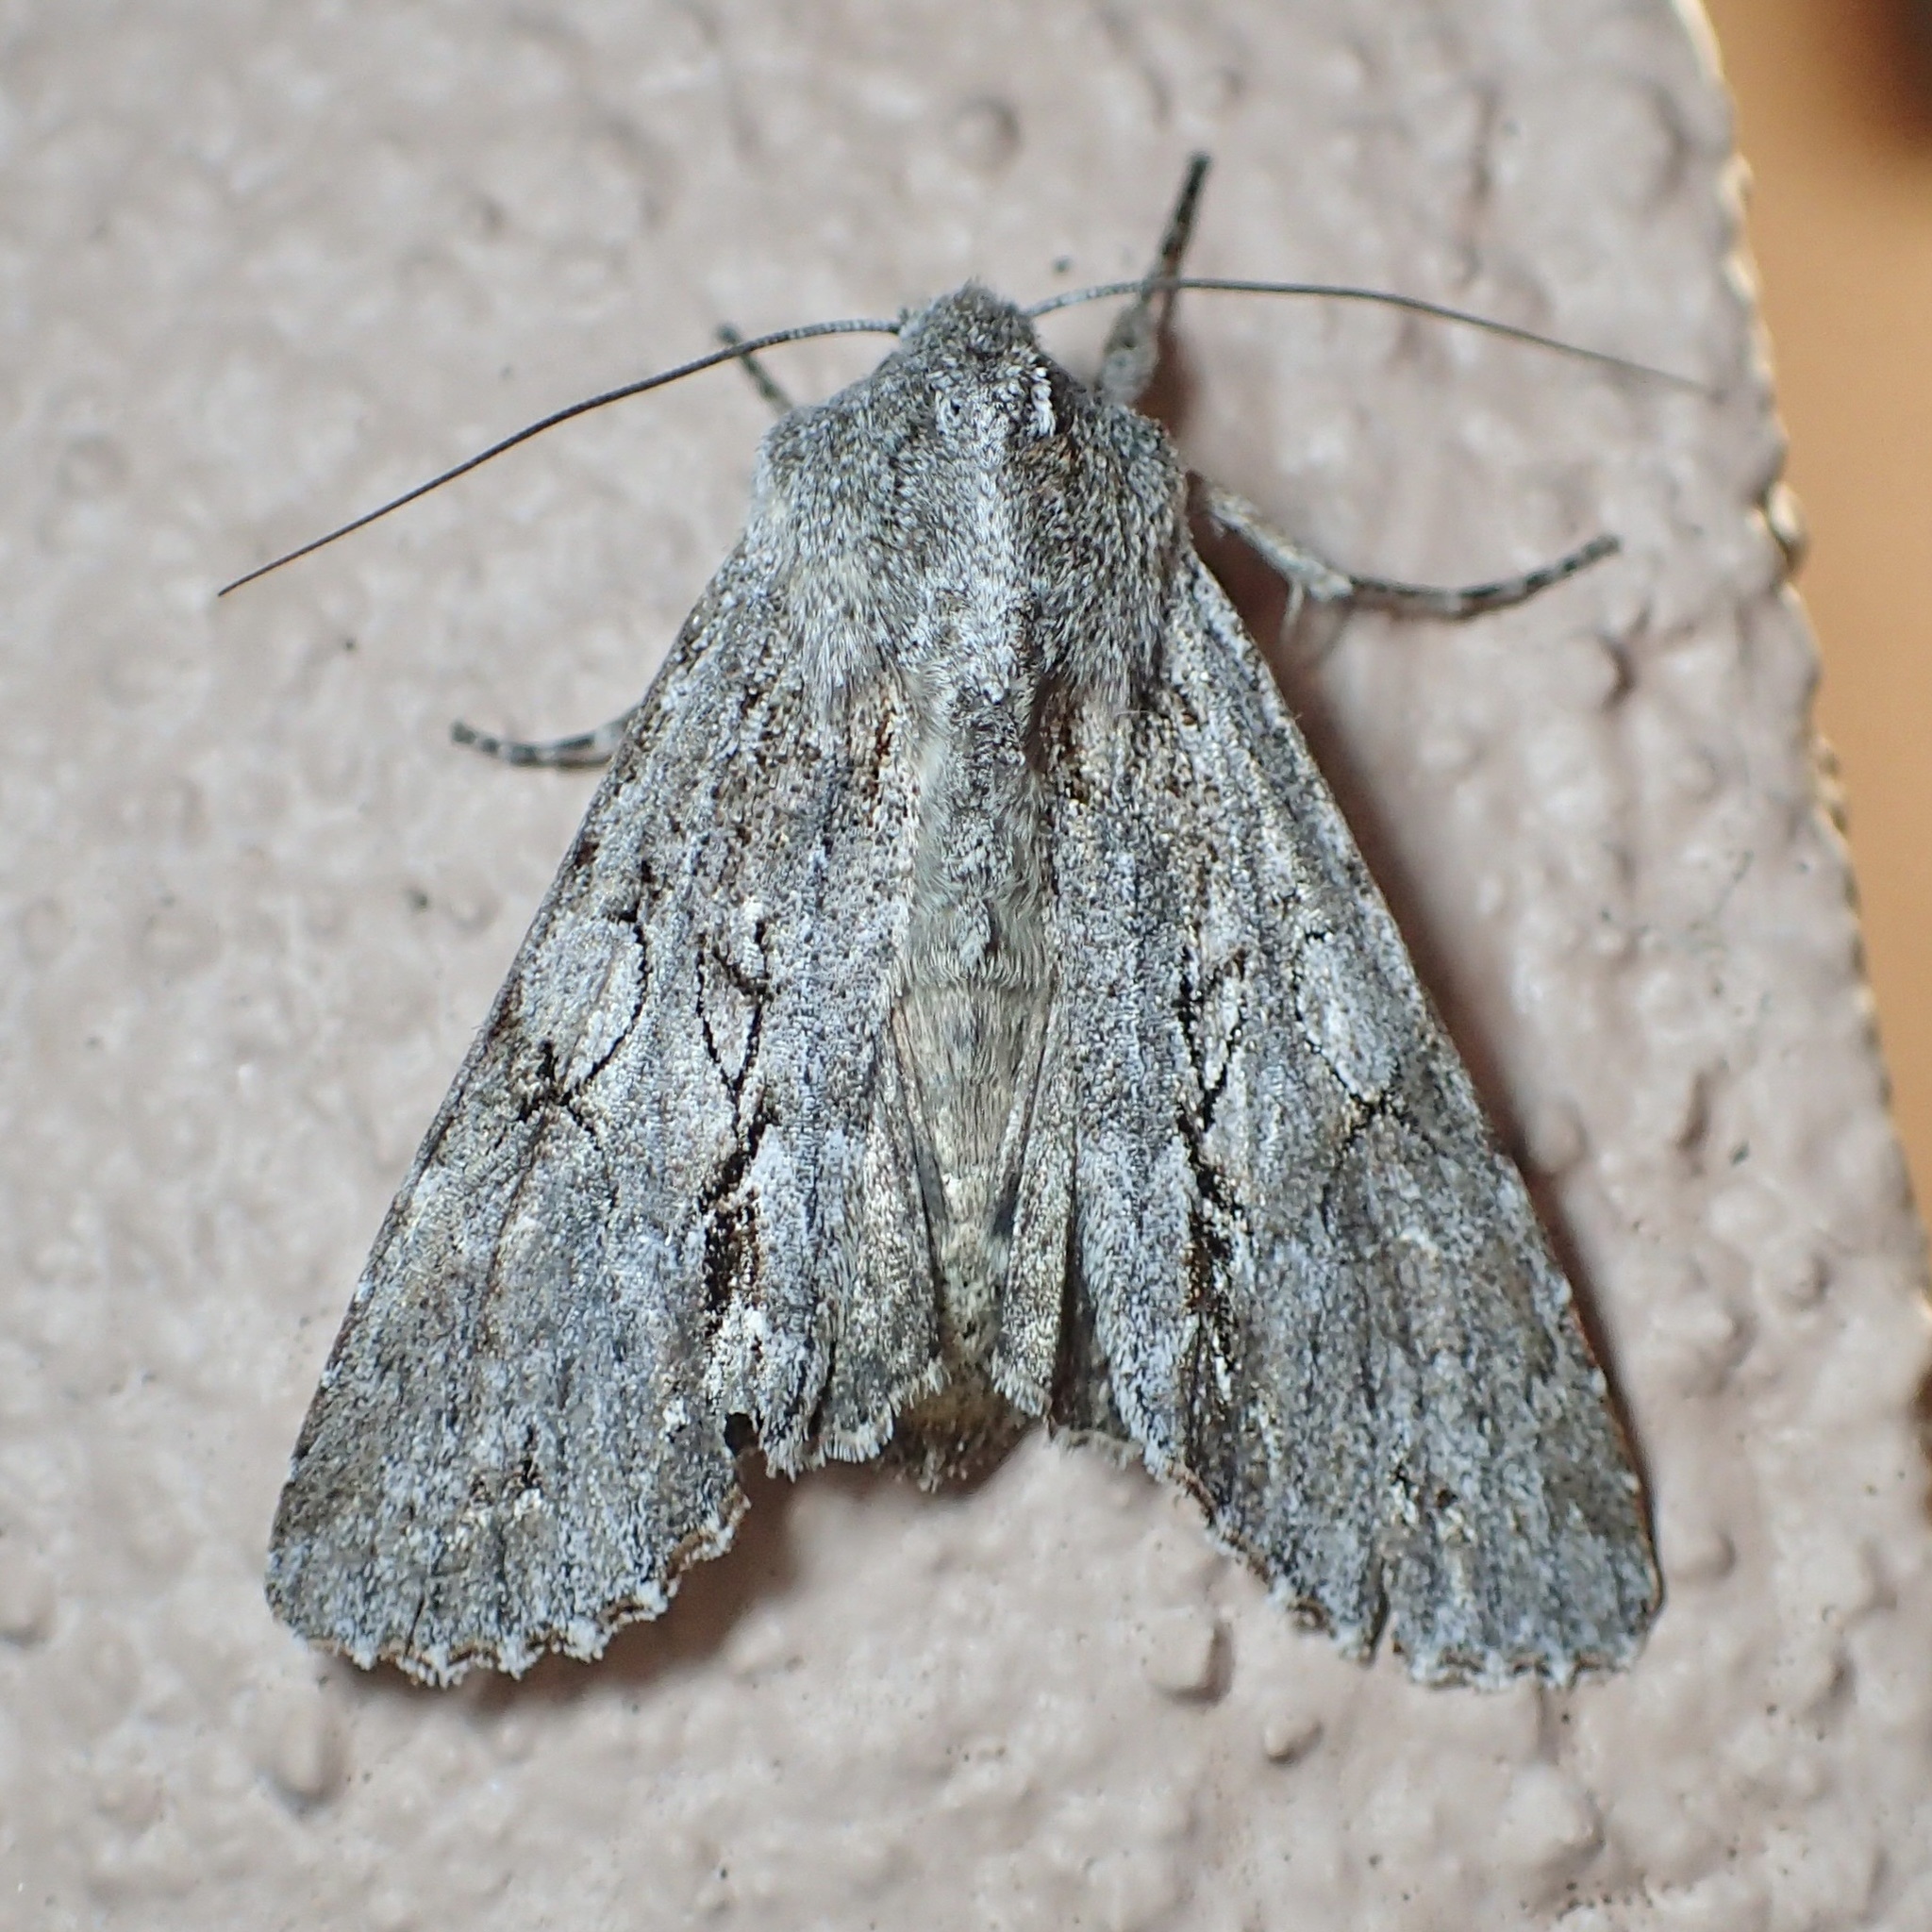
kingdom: Animalia
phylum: Arthropoda
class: Insecta
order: Lepidoptera
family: Noctuidae
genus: Ichneutica
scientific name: Ichneutica
